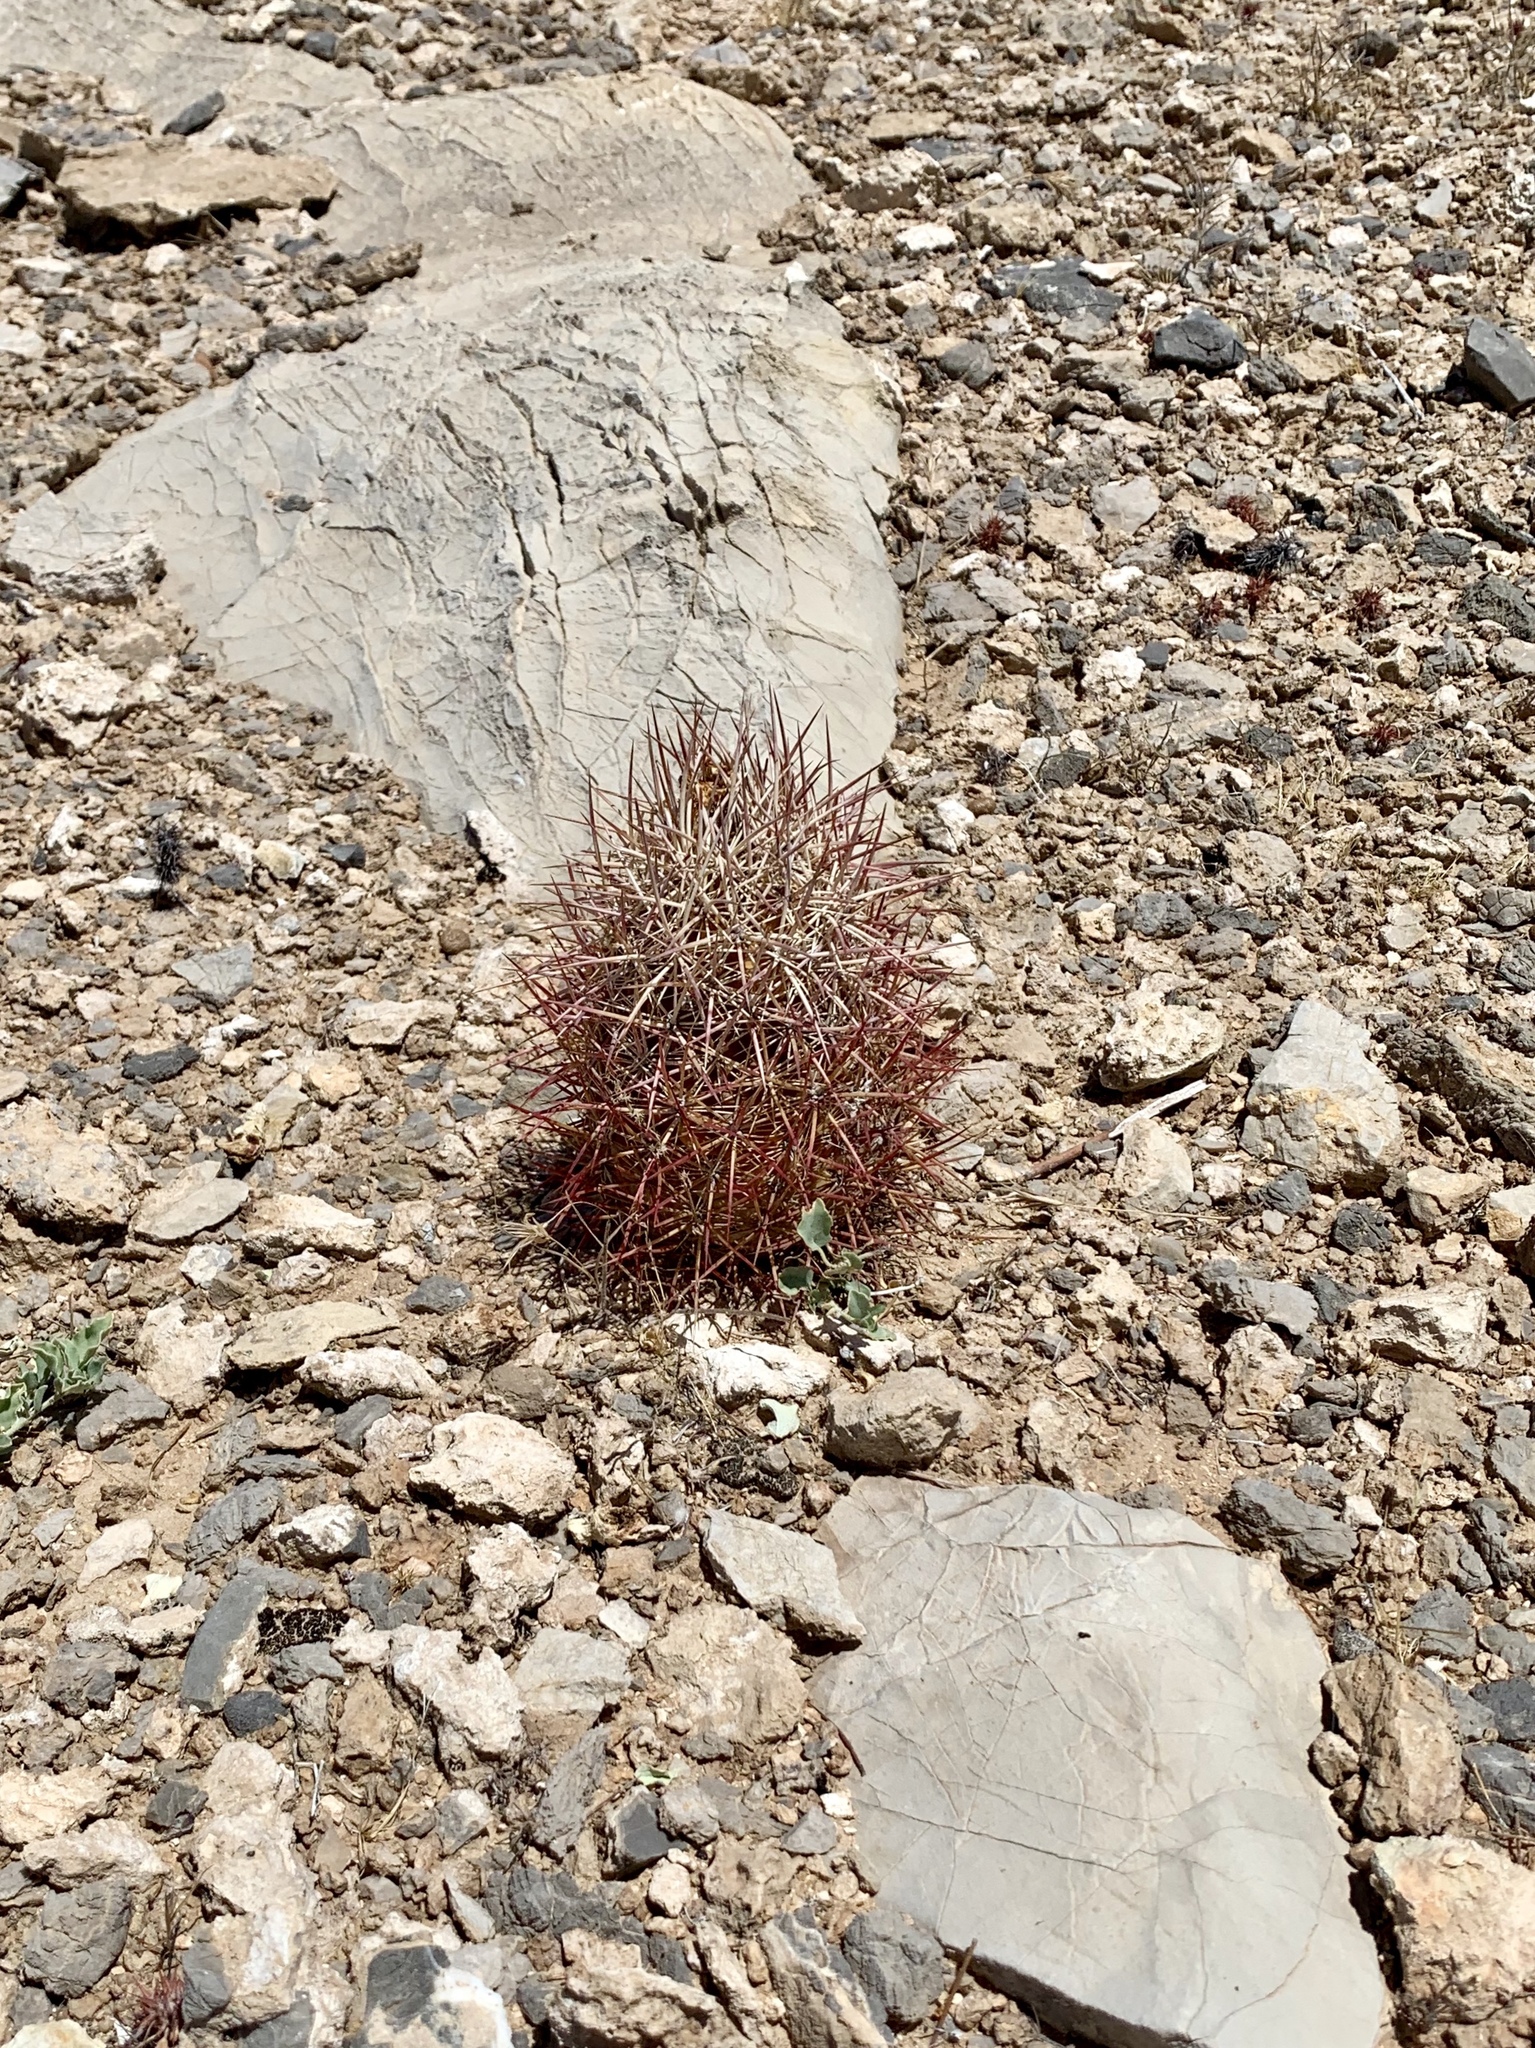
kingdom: Plantae
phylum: Tracheophyta
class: Magnoliopsida
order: Caryophyllales
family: Cactaceae
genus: Sclerocactus
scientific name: Sclerocactus johnsonii
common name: Eight-spine fishhook cactus
